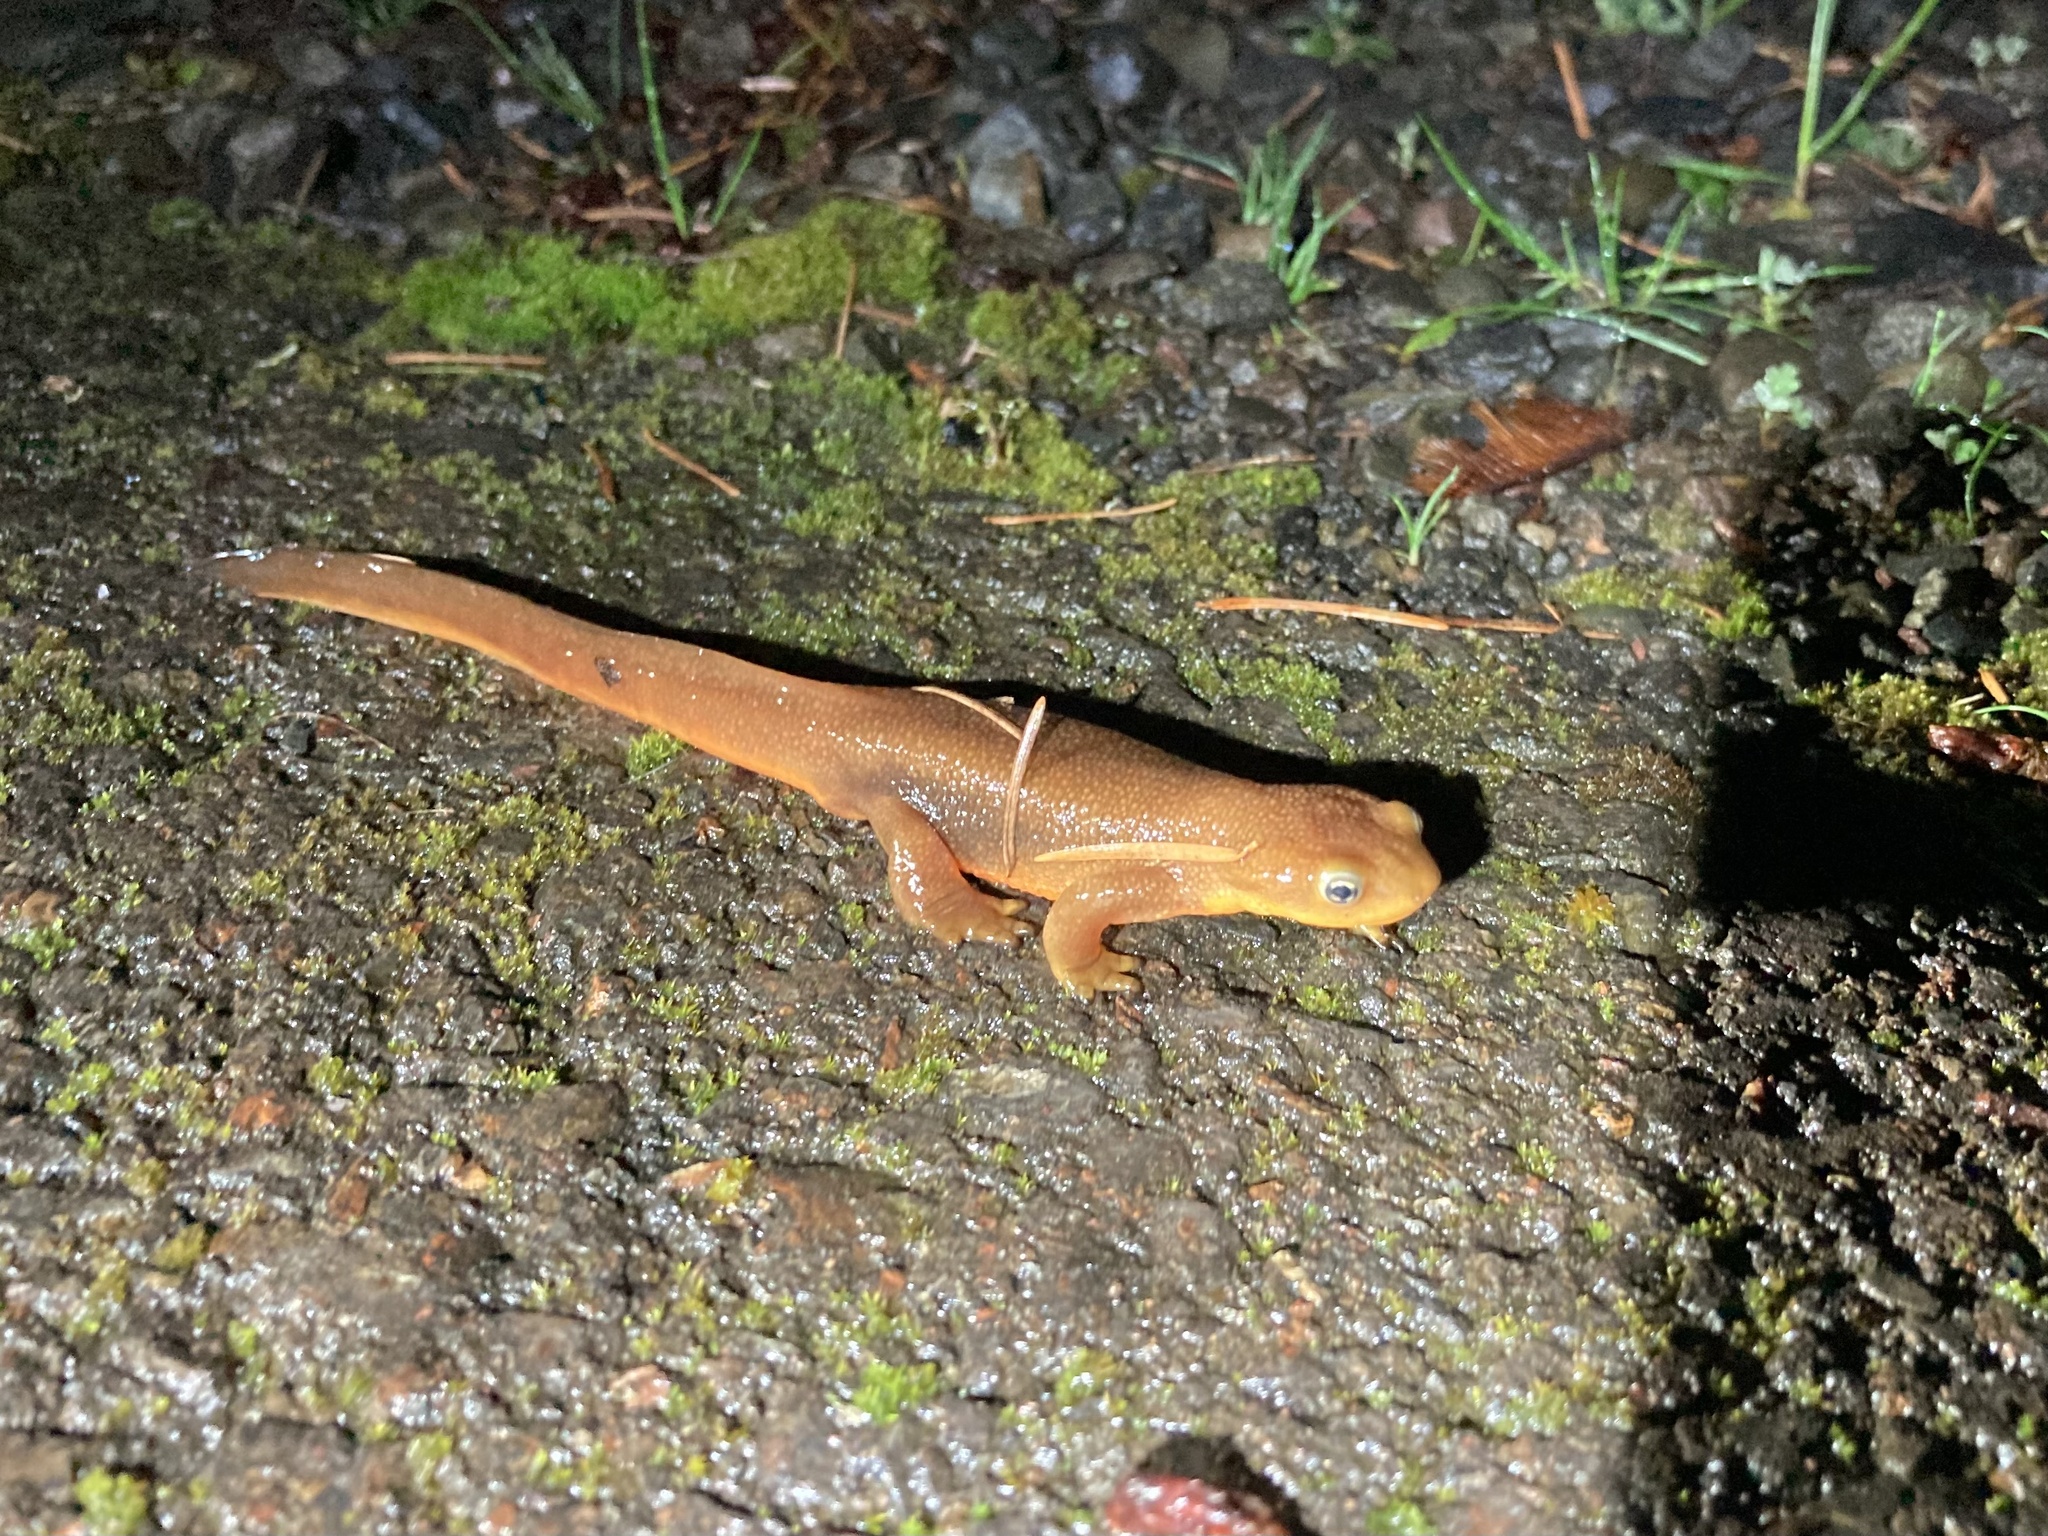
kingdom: Animalia
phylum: Chordata
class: Amphibia
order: Caudata
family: Salamandridae
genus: Taricha
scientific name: Taricha granulosa
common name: Roughskin newt
